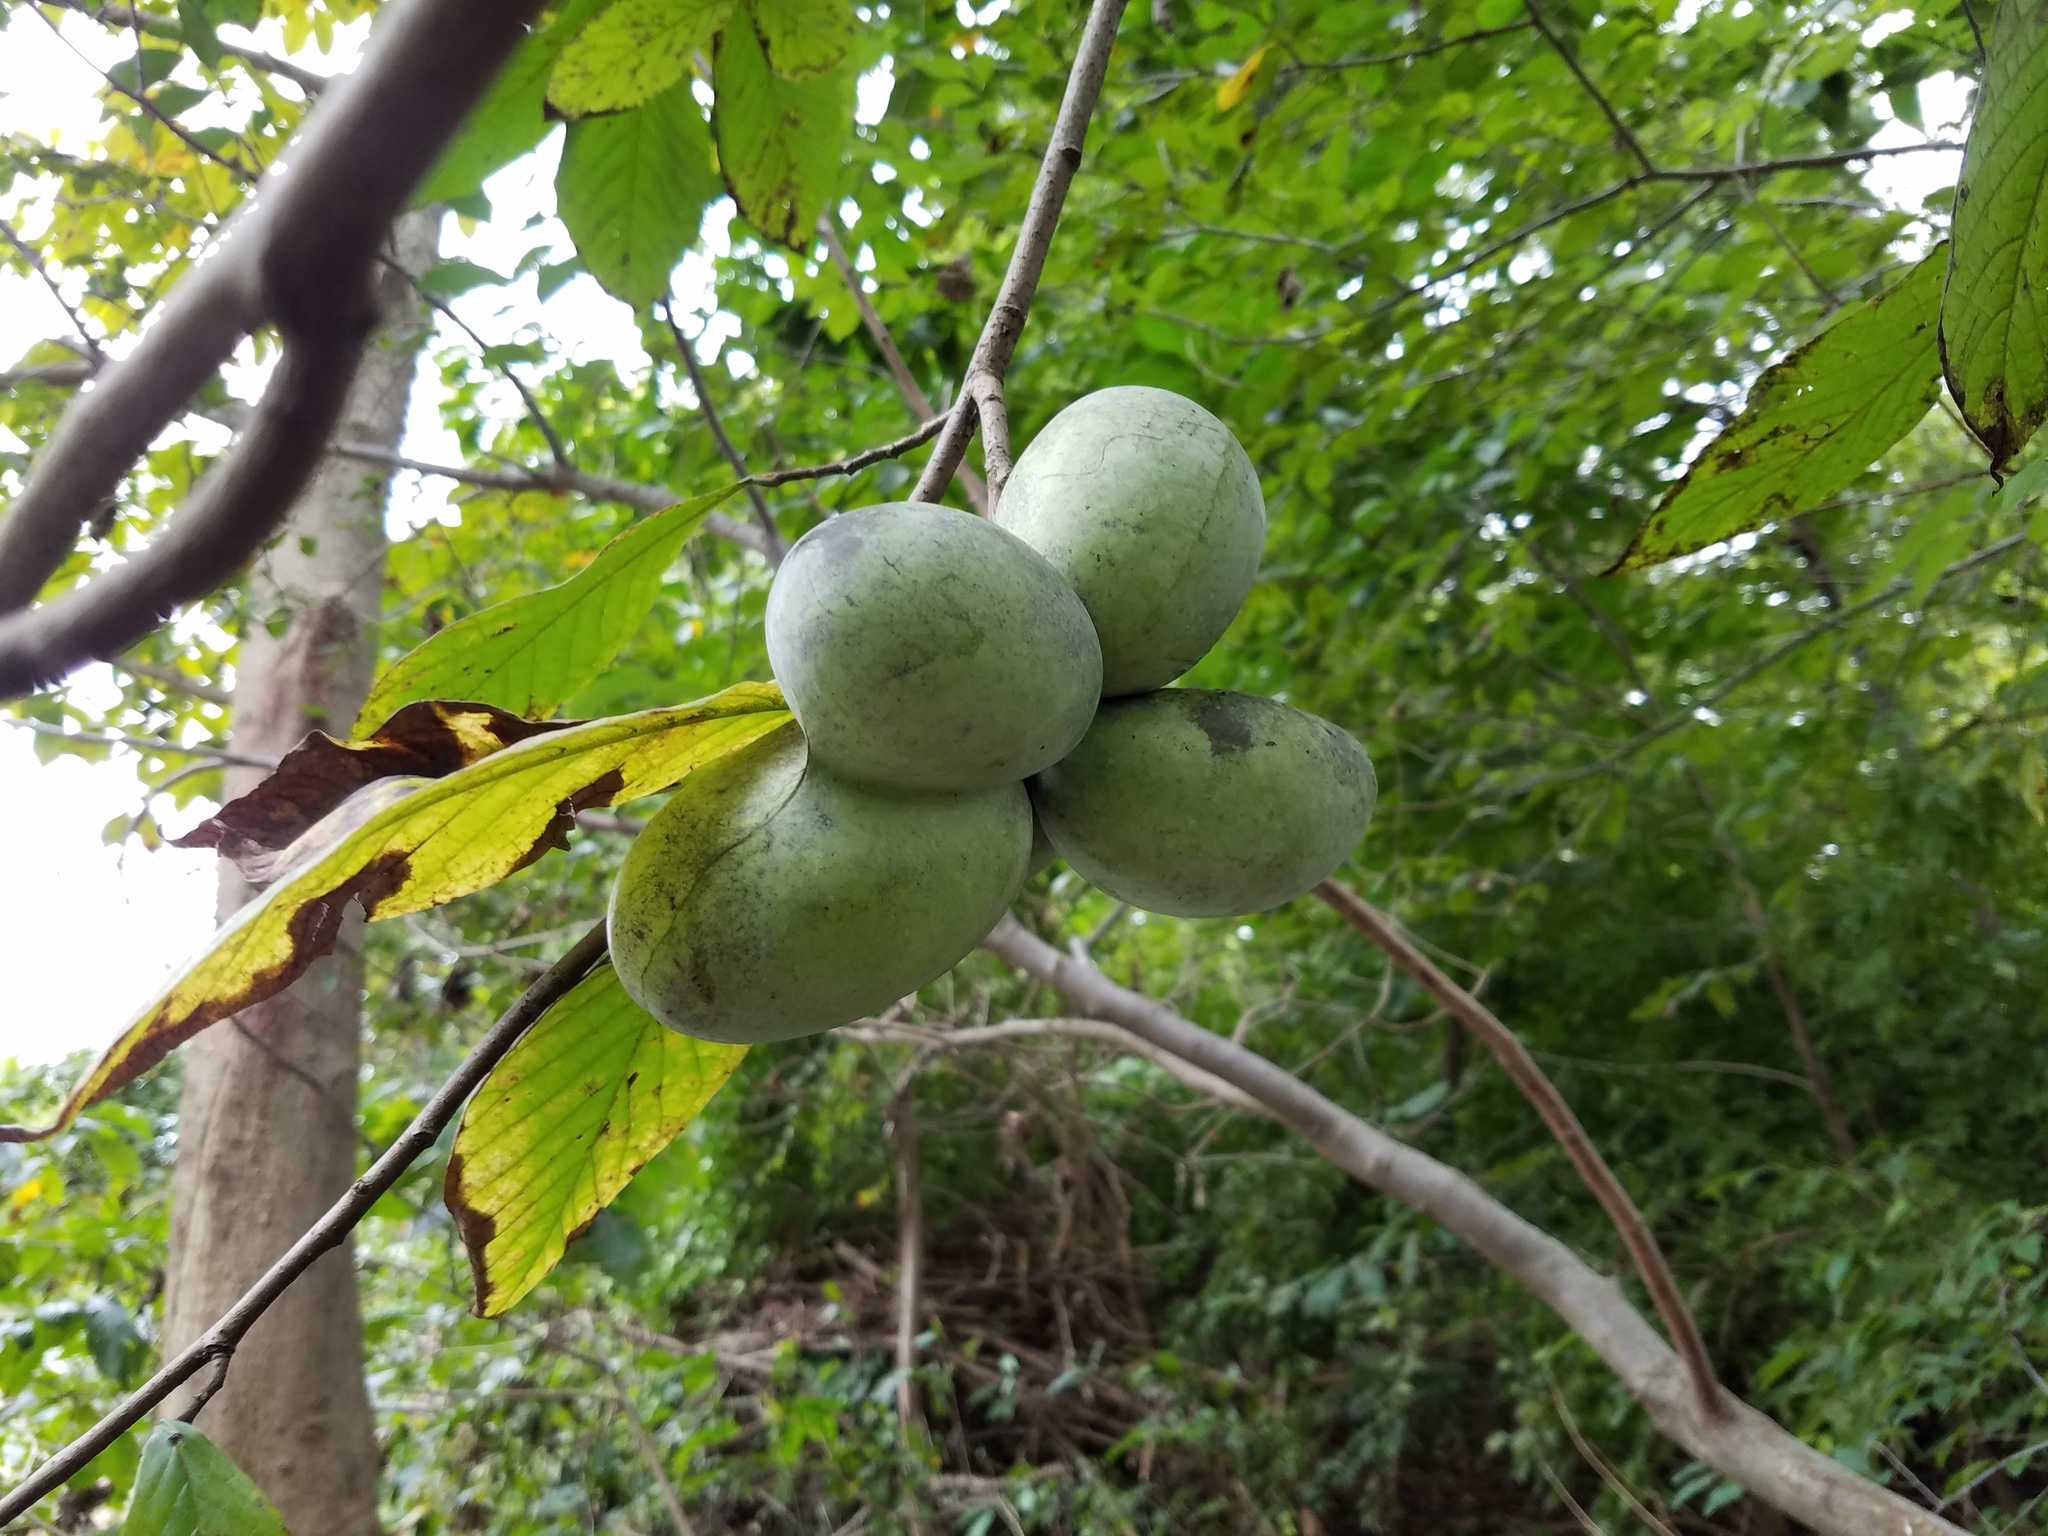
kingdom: Plantae
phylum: Tracheophyta
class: Magnoliopsida
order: Magnoliales
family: Annonaceae
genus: Asimina
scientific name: Asimina triloba
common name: Dog-banana
